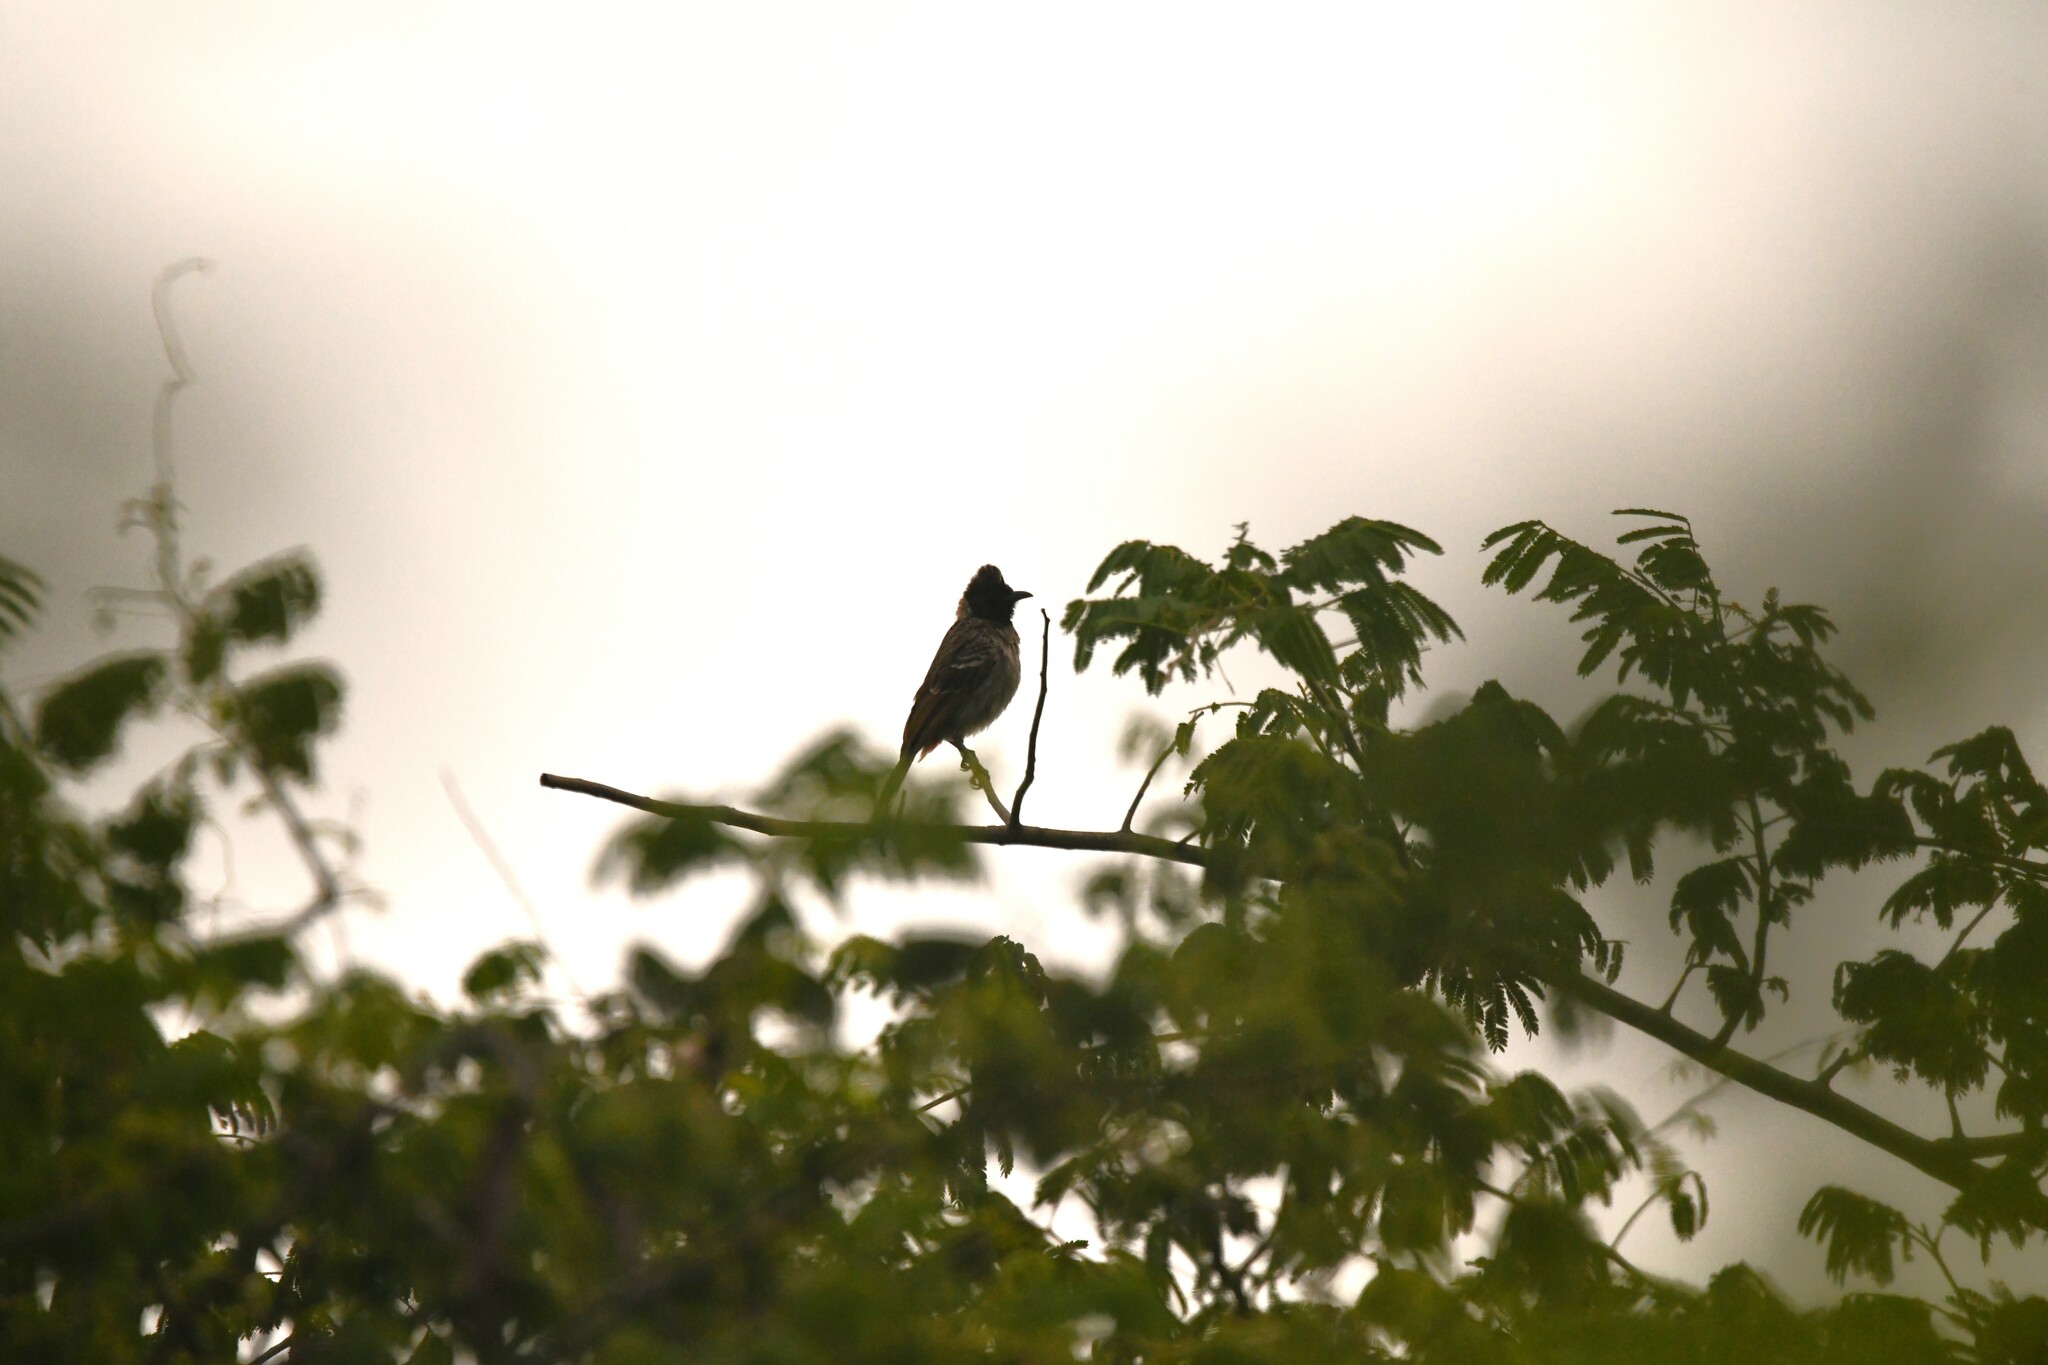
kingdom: Animalia
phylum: Chordata
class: Aves
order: Passeriformes
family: Pycnonotidae
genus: Pycnonotus
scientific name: Pycnonotus cafer
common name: Red-vented bulbul
